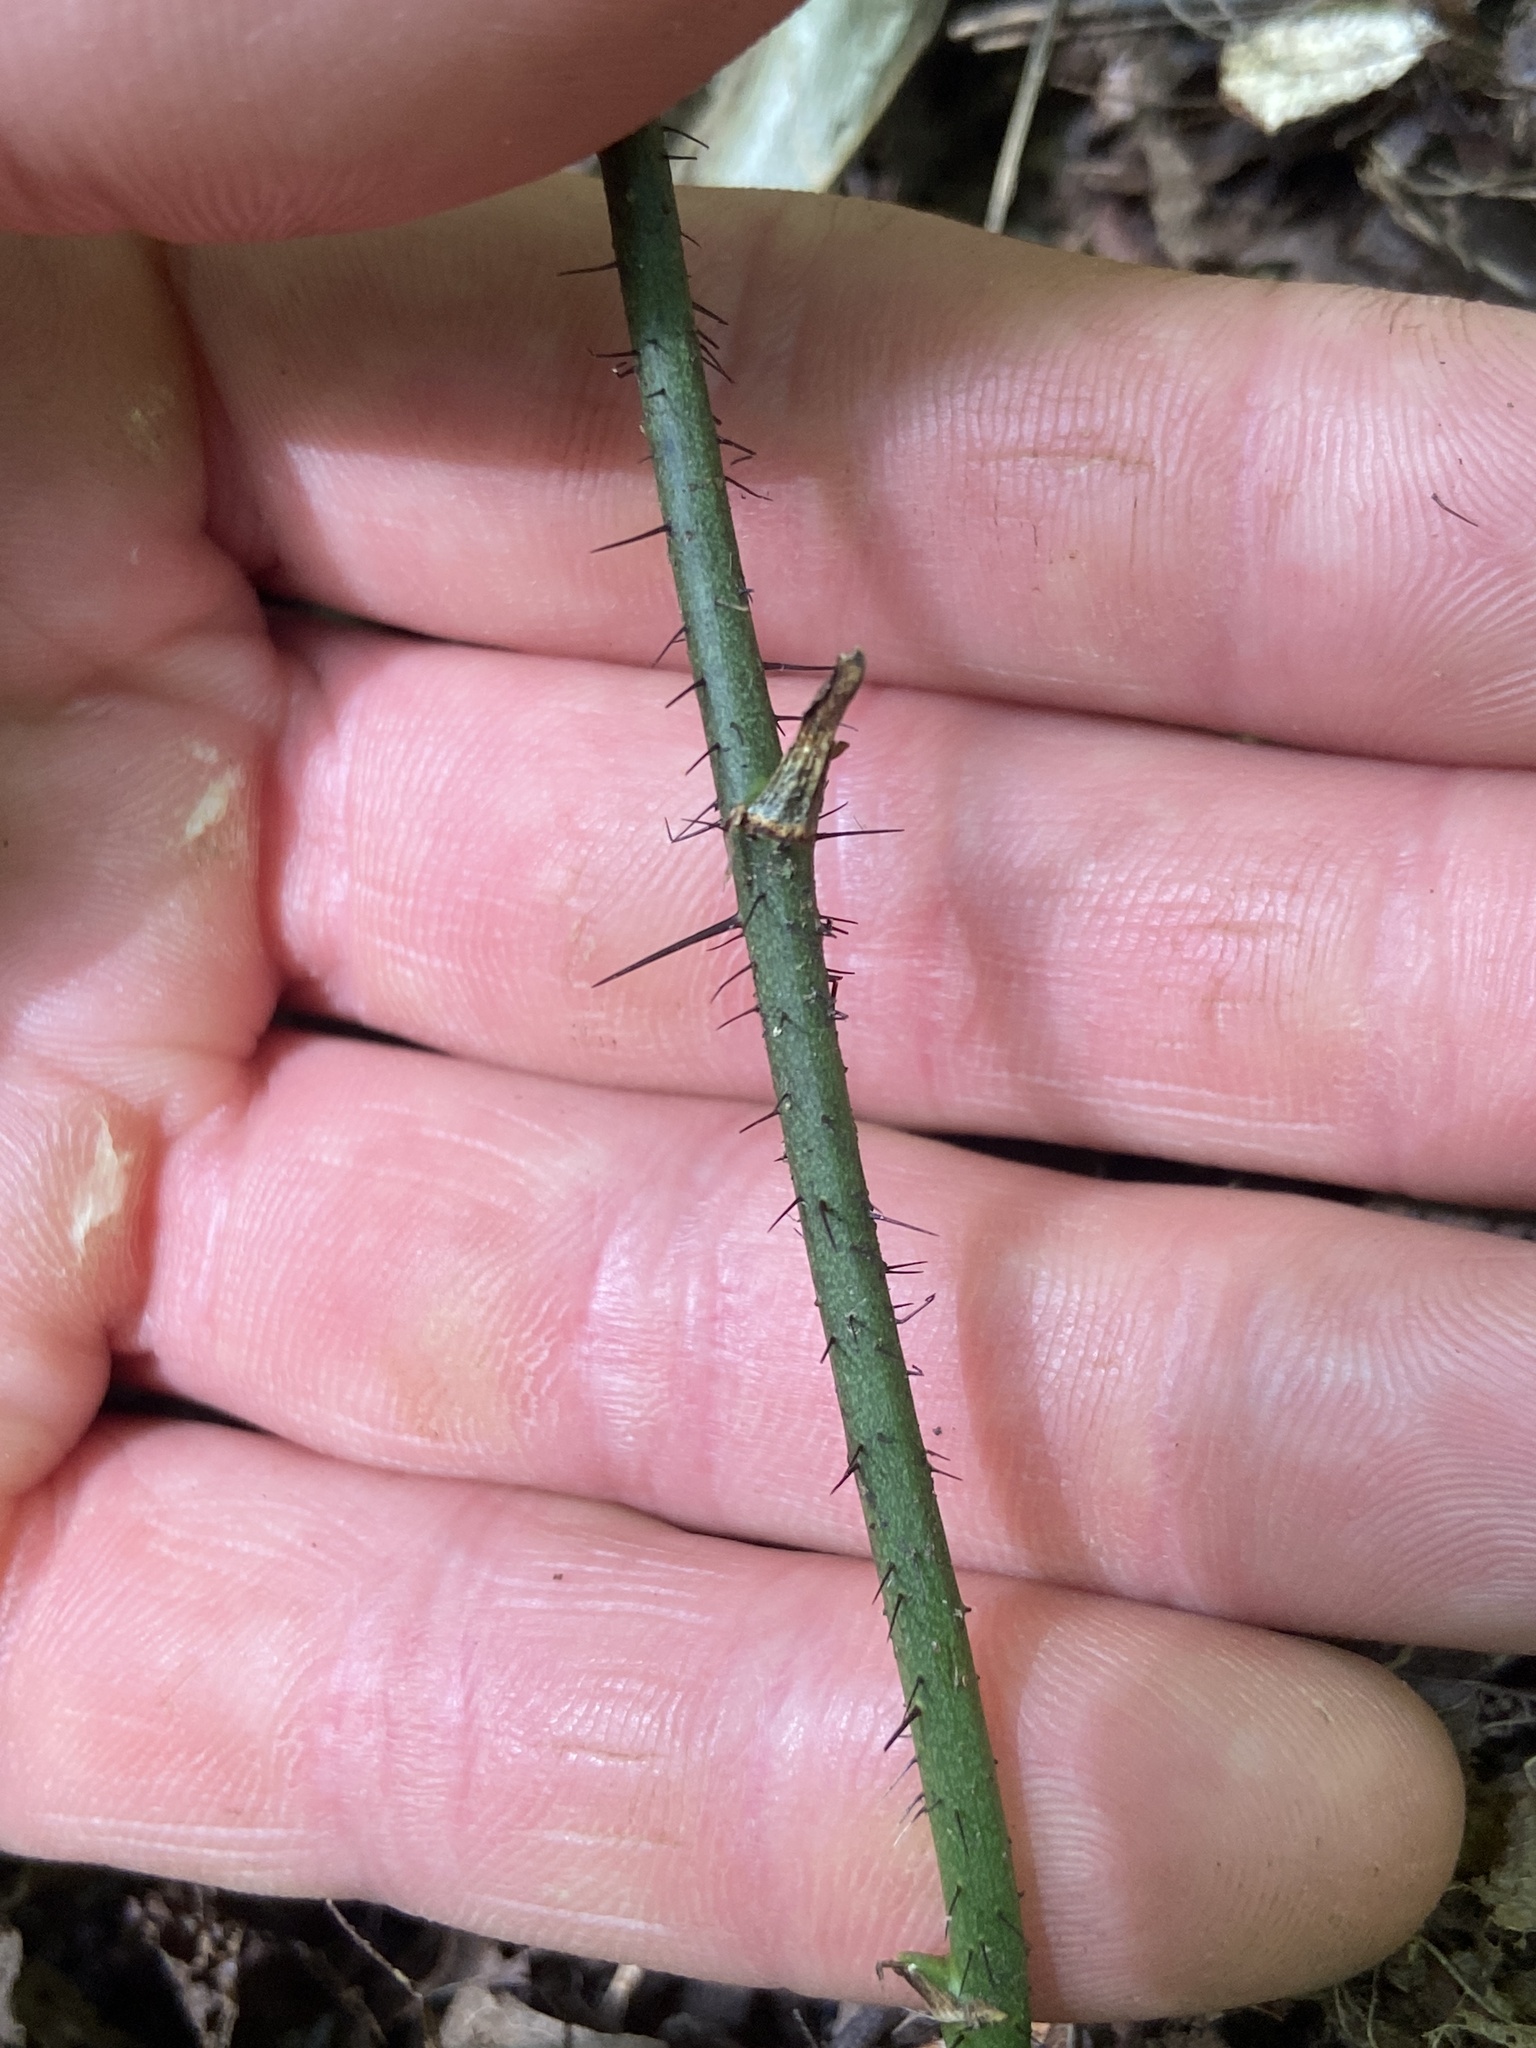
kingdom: Plantae
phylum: Tracheophyta
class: Liliopsida
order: Liliales
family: Smilacaceae
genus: Smilax
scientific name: Smilax tamnoides
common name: Hellfetter
